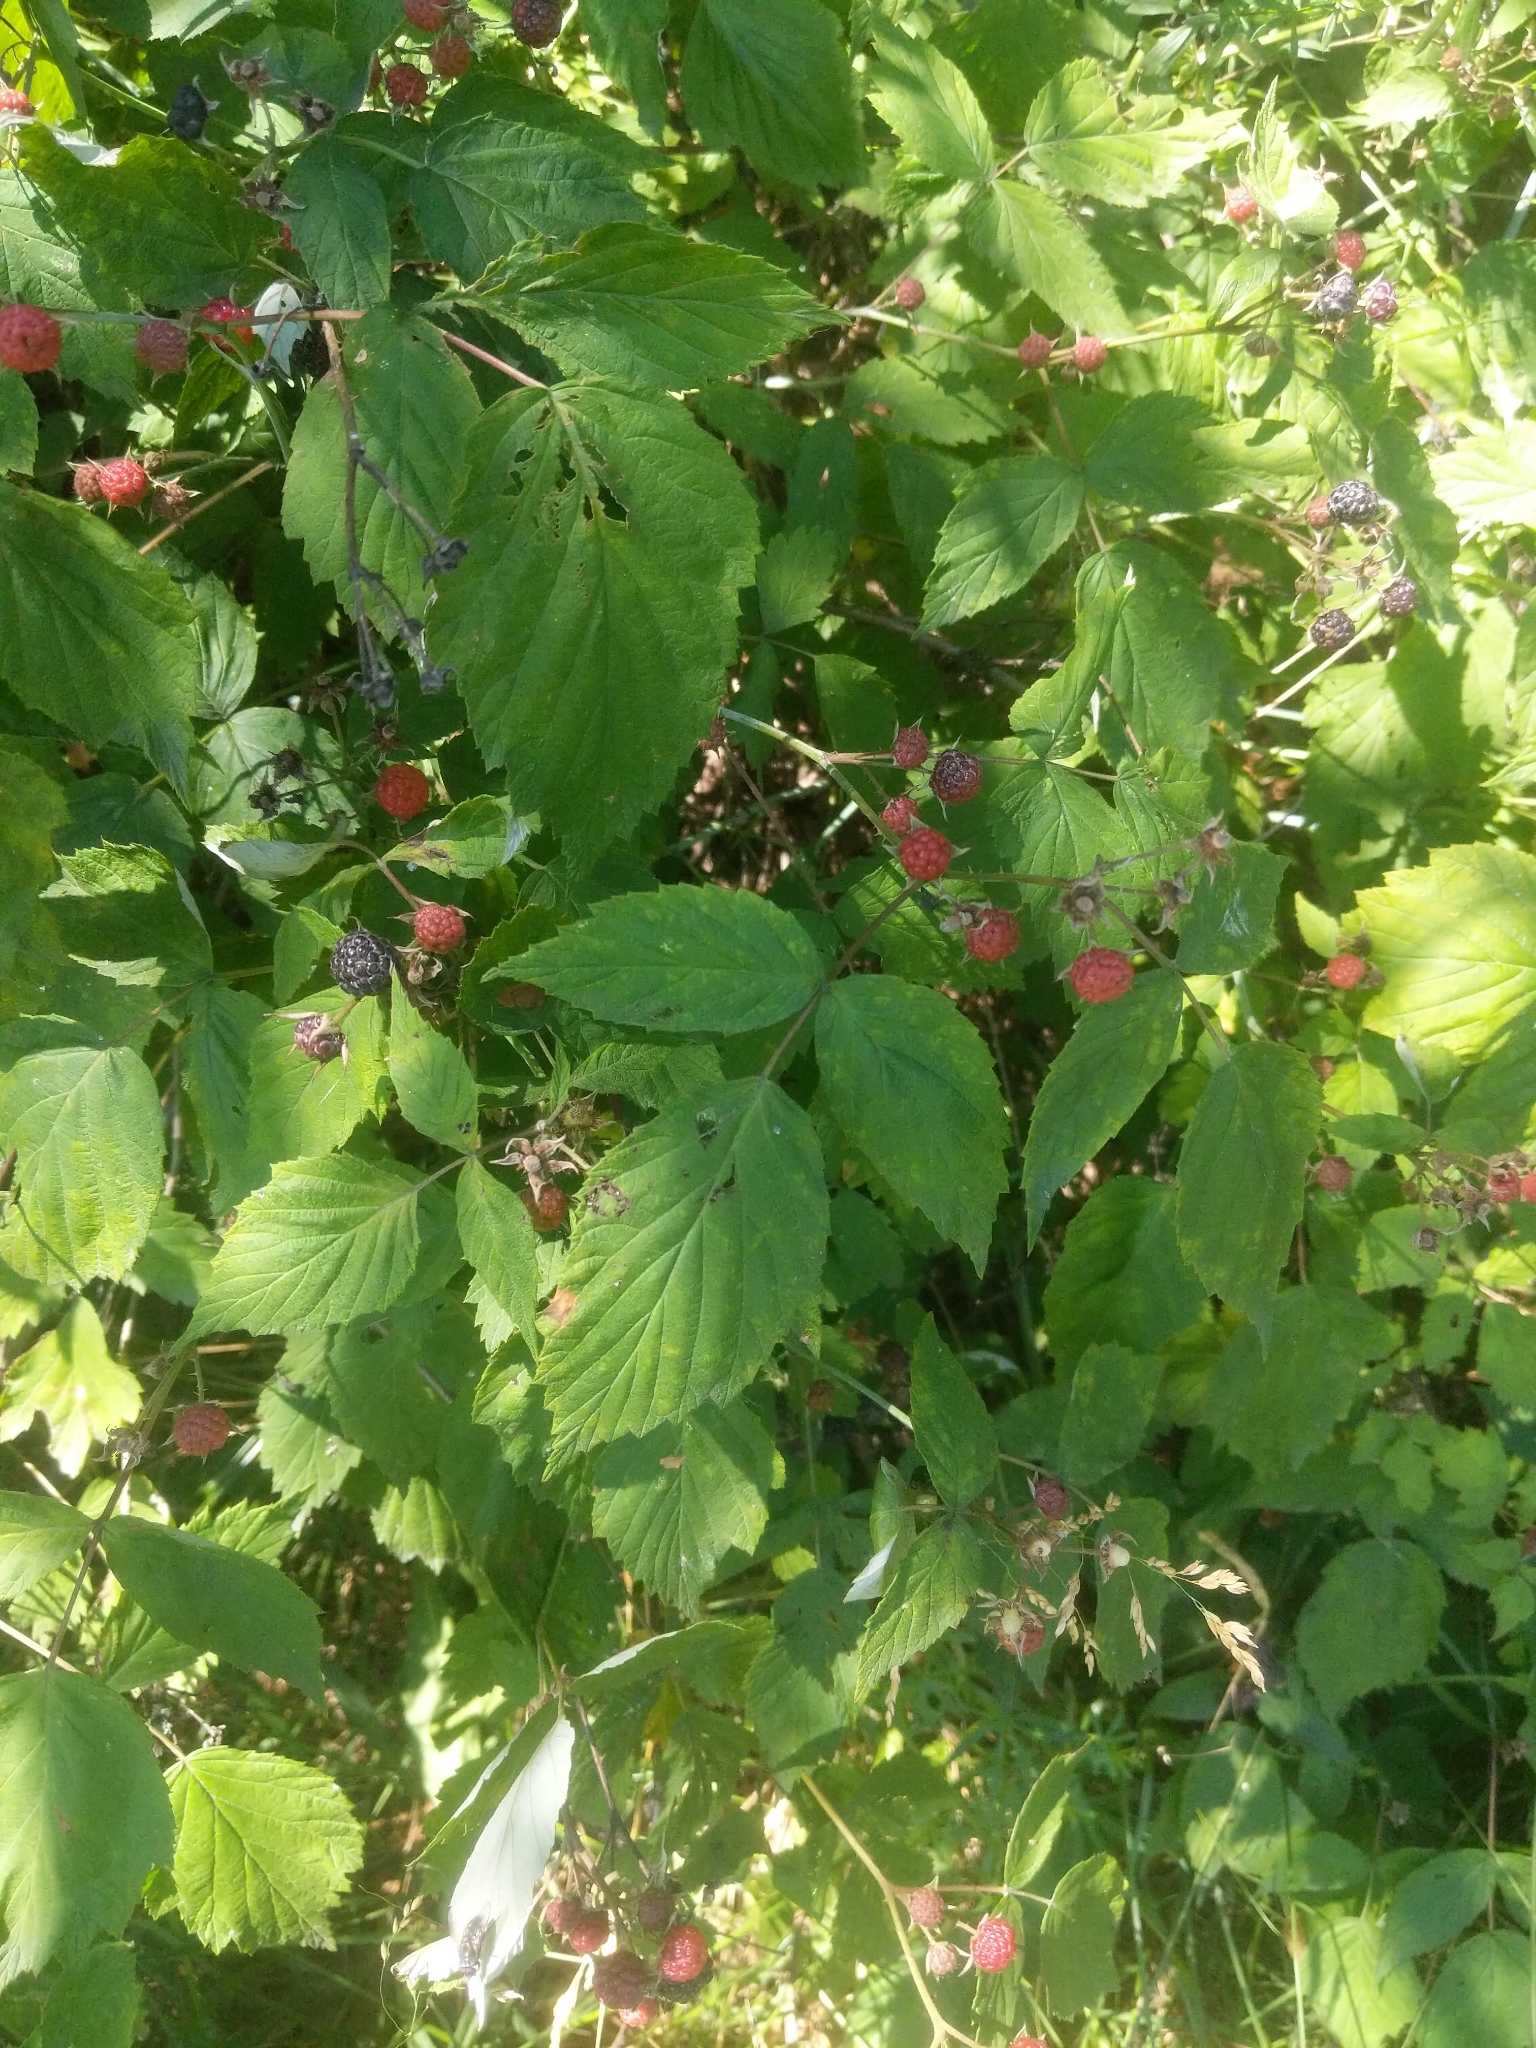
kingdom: Plantae
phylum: Tracheophyta
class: Magnoliopsida
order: Rosales
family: Rosaceae
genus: Rubus
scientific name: Rubus occidentalis
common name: Black raspberry
